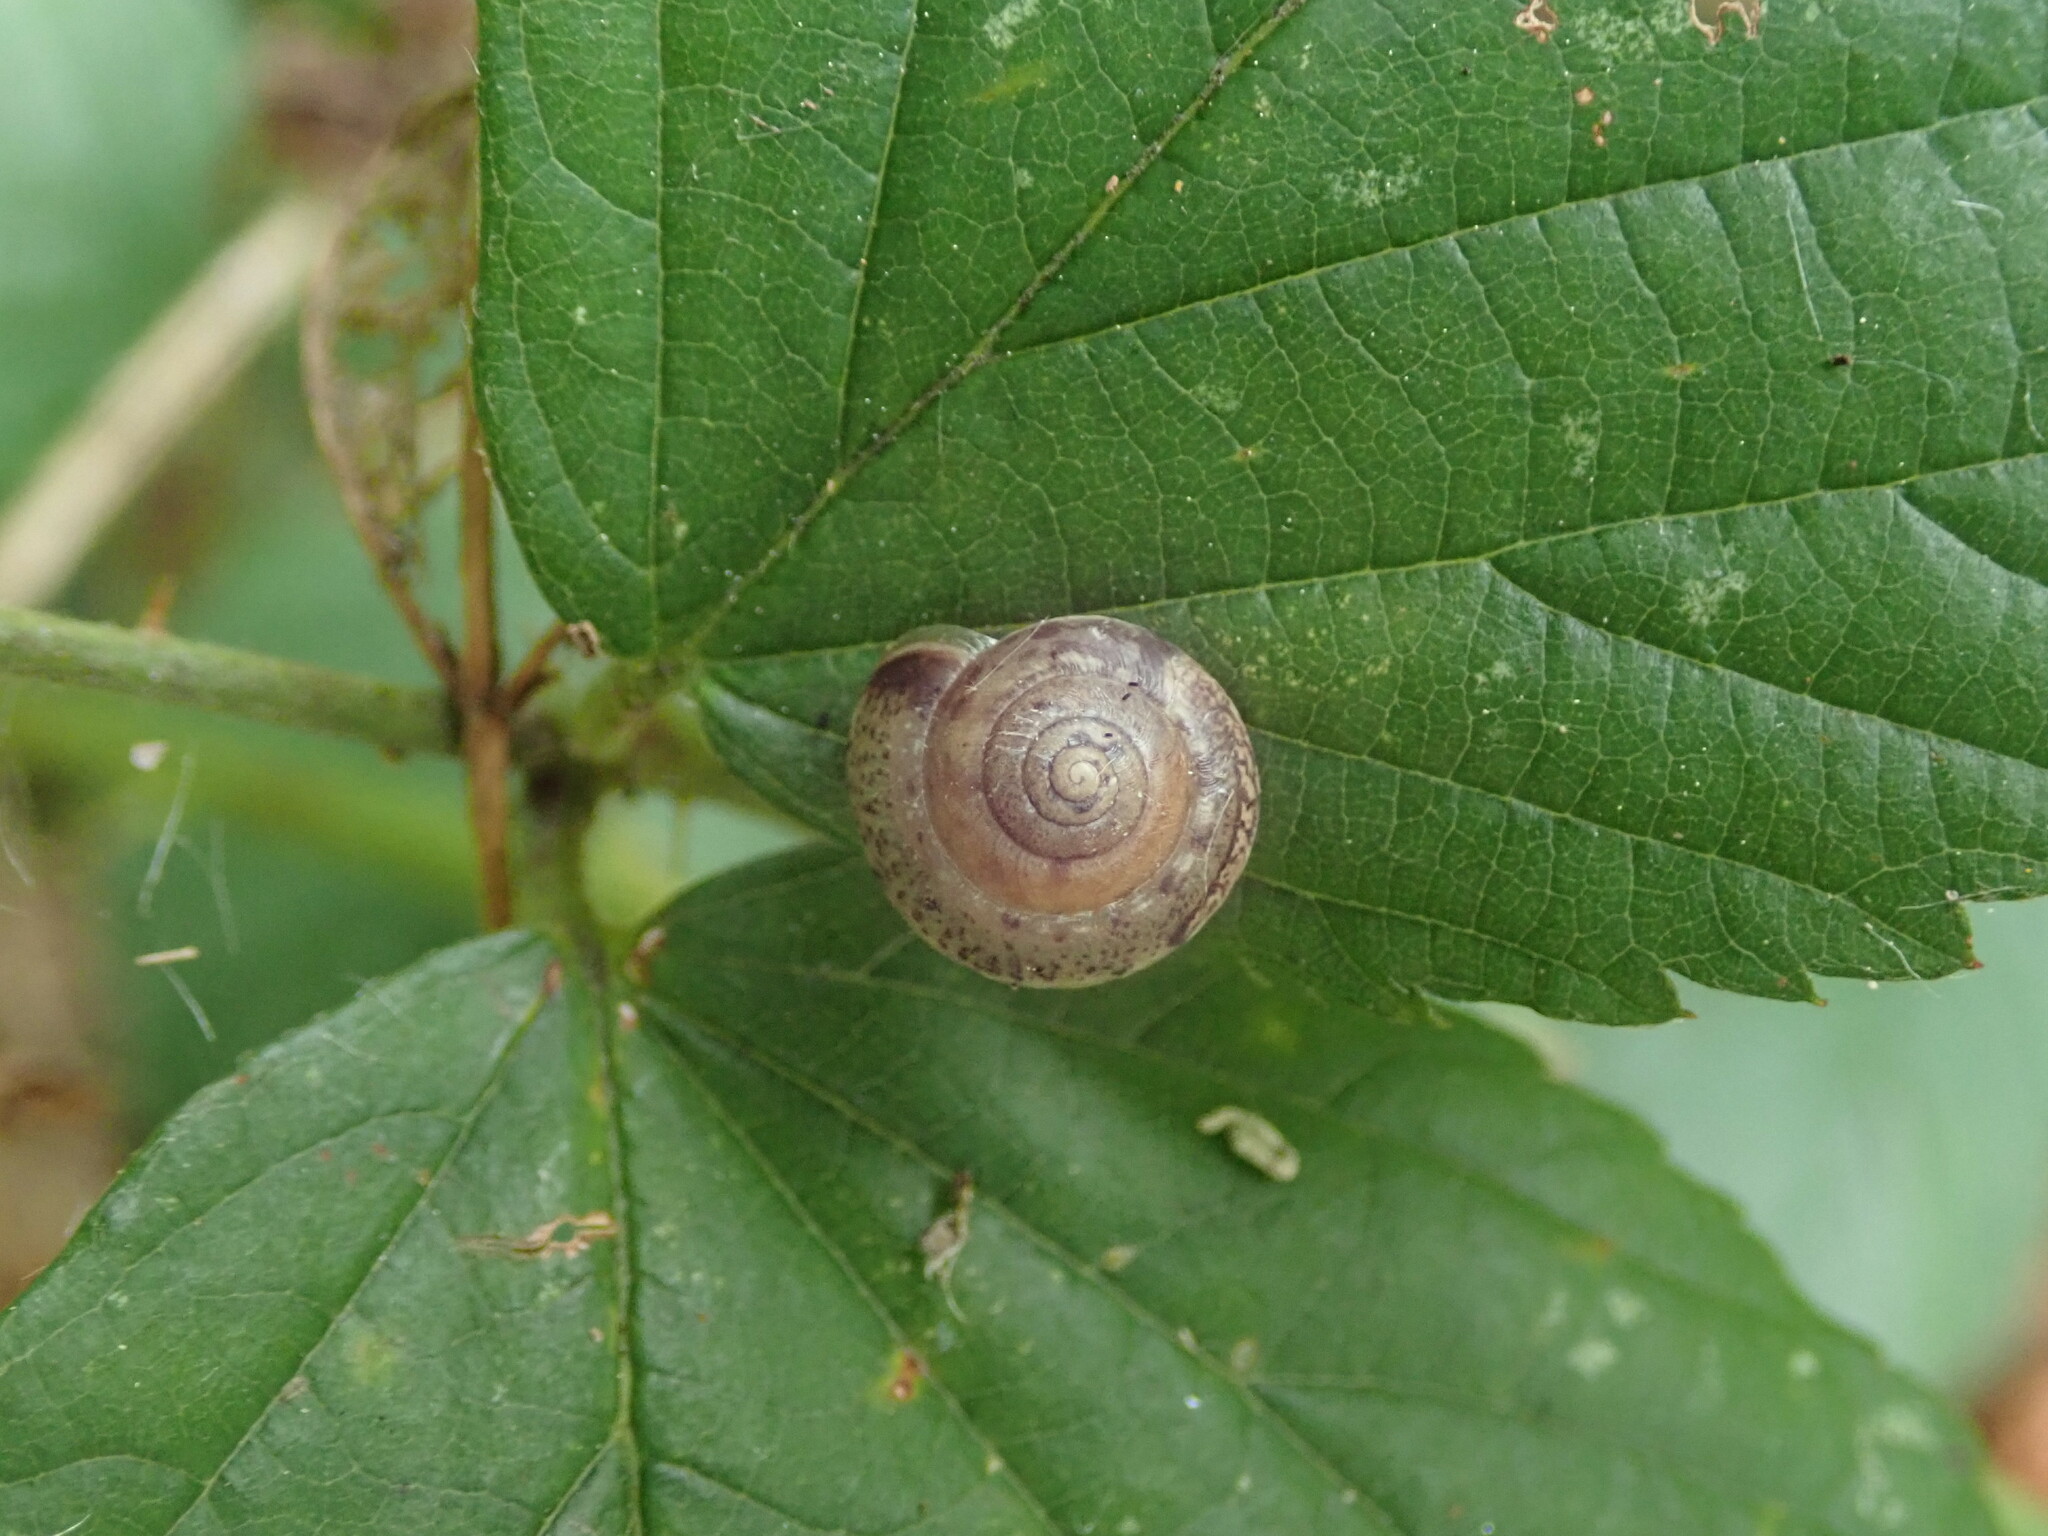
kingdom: Animalia
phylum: Mollusca
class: Gastropoda
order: Stylommatophora
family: Hygromiidae
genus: Hygromia
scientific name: Hygromia cinctella
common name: Girdled snail
